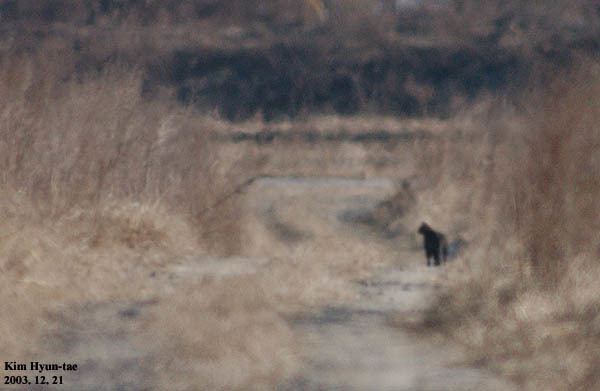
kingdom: Animalia
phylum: Chordata
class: Mammalia
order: Carnivora
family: Felidae
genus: Prionailurus
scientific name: Prionailurus bengalensis
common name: Leopard cat
